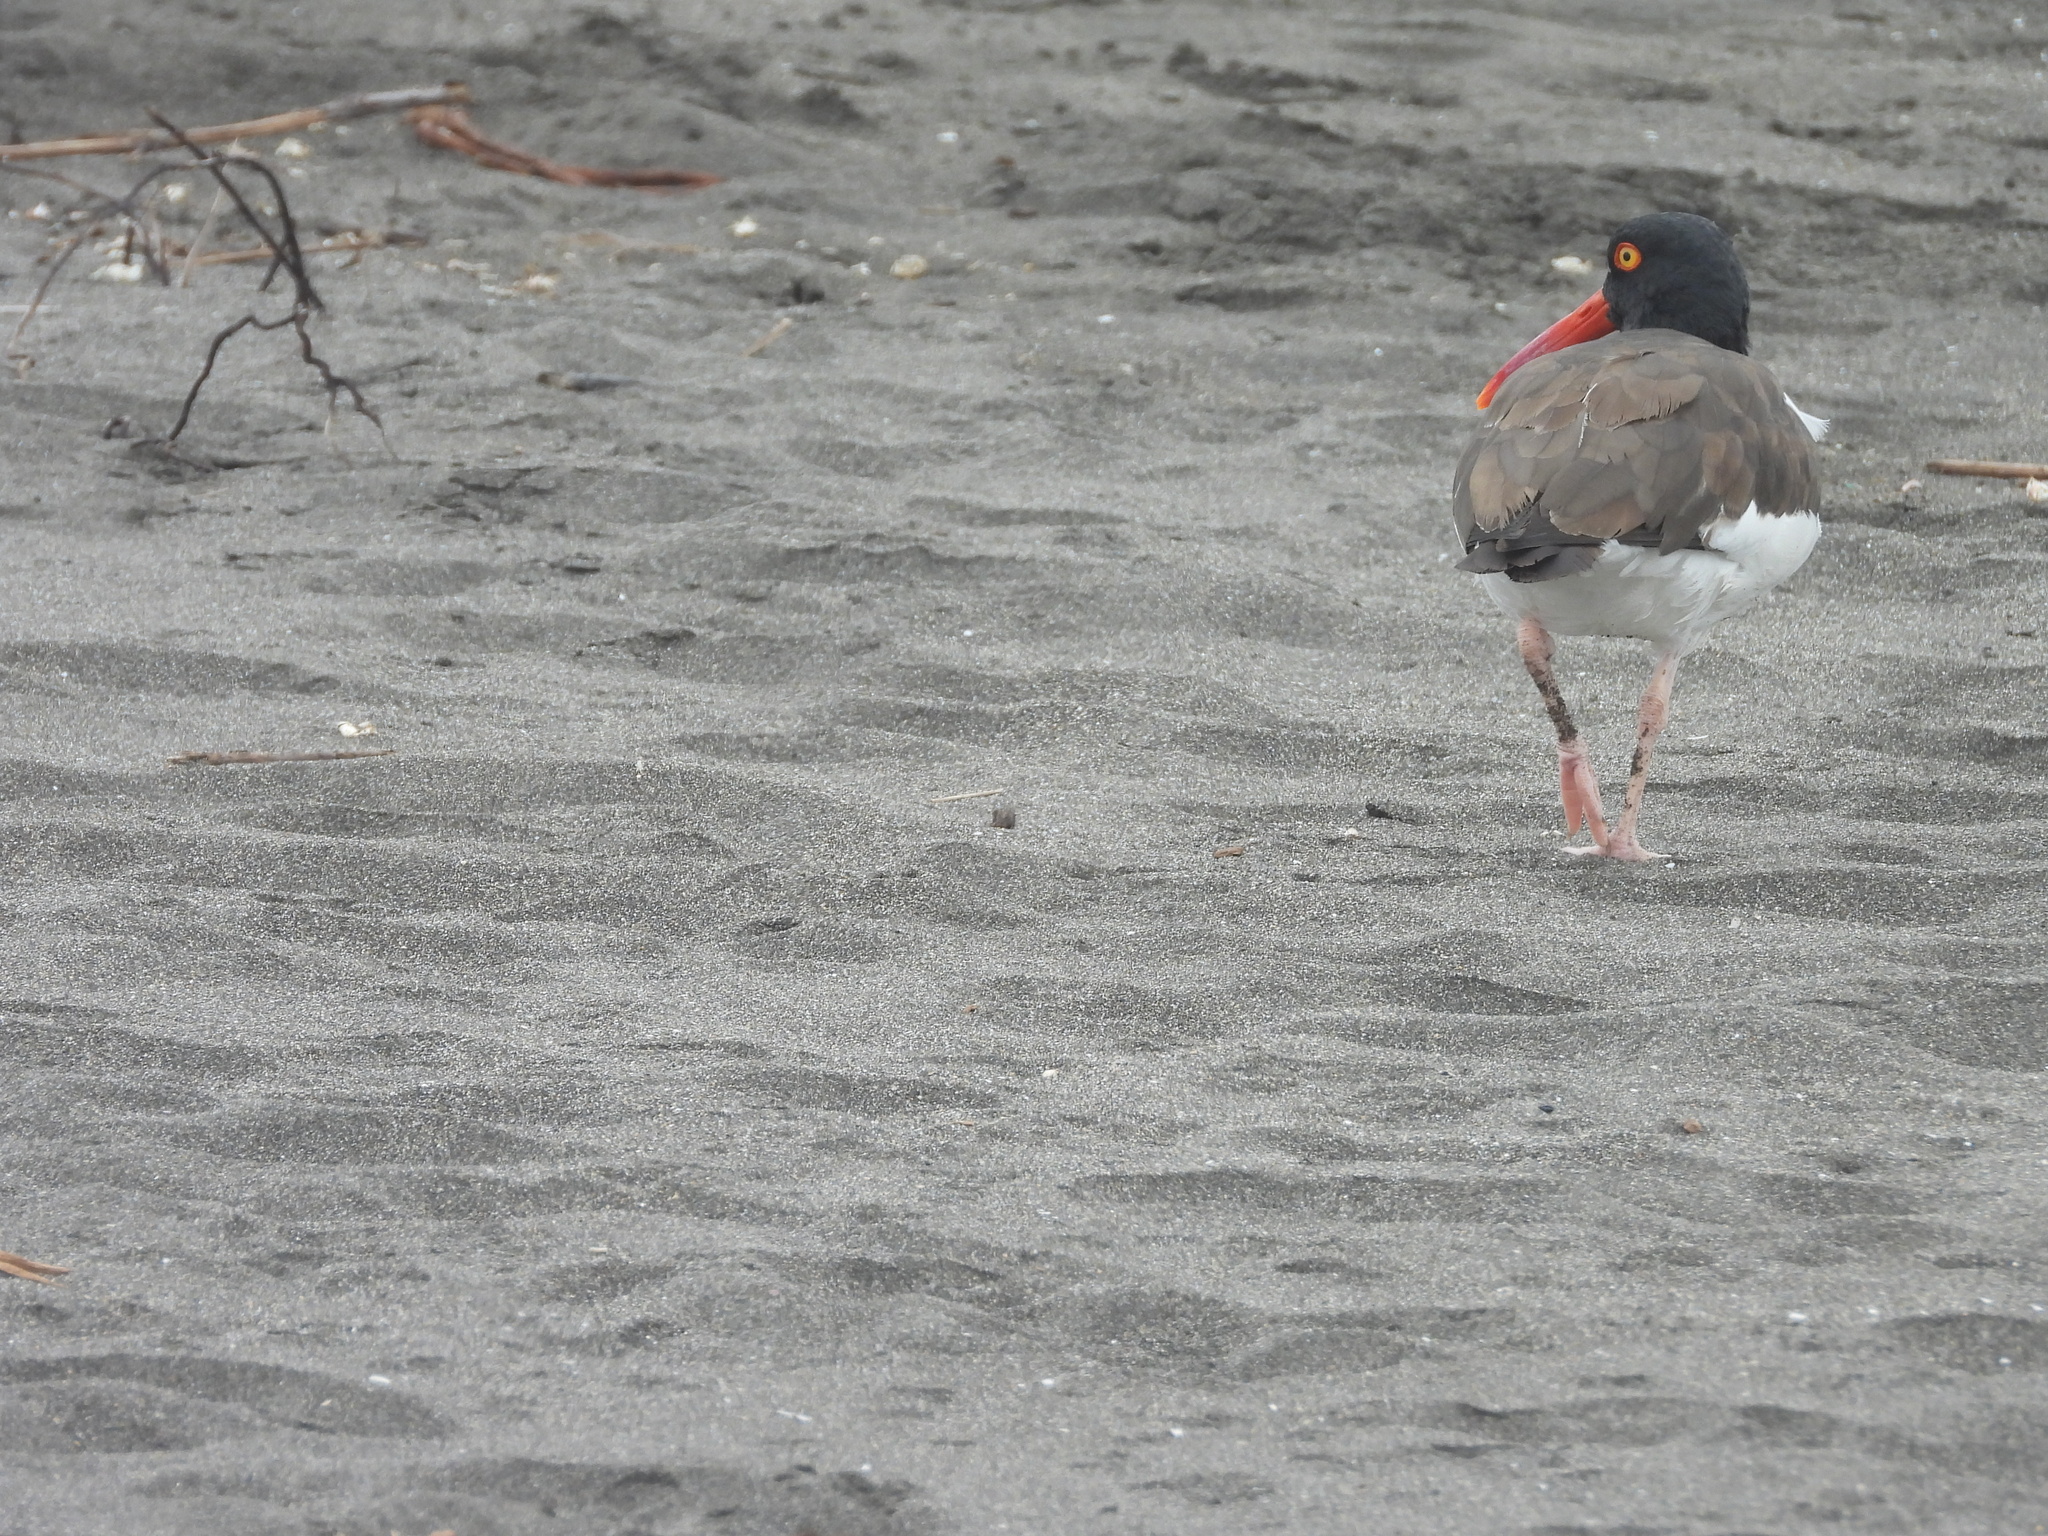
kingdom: Animalia
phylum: Chordata
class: Aves
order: Charadriiformes
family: Haematopodidae
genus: Haematopus
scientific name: Haematopus palliatus
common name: American oystercatcher
